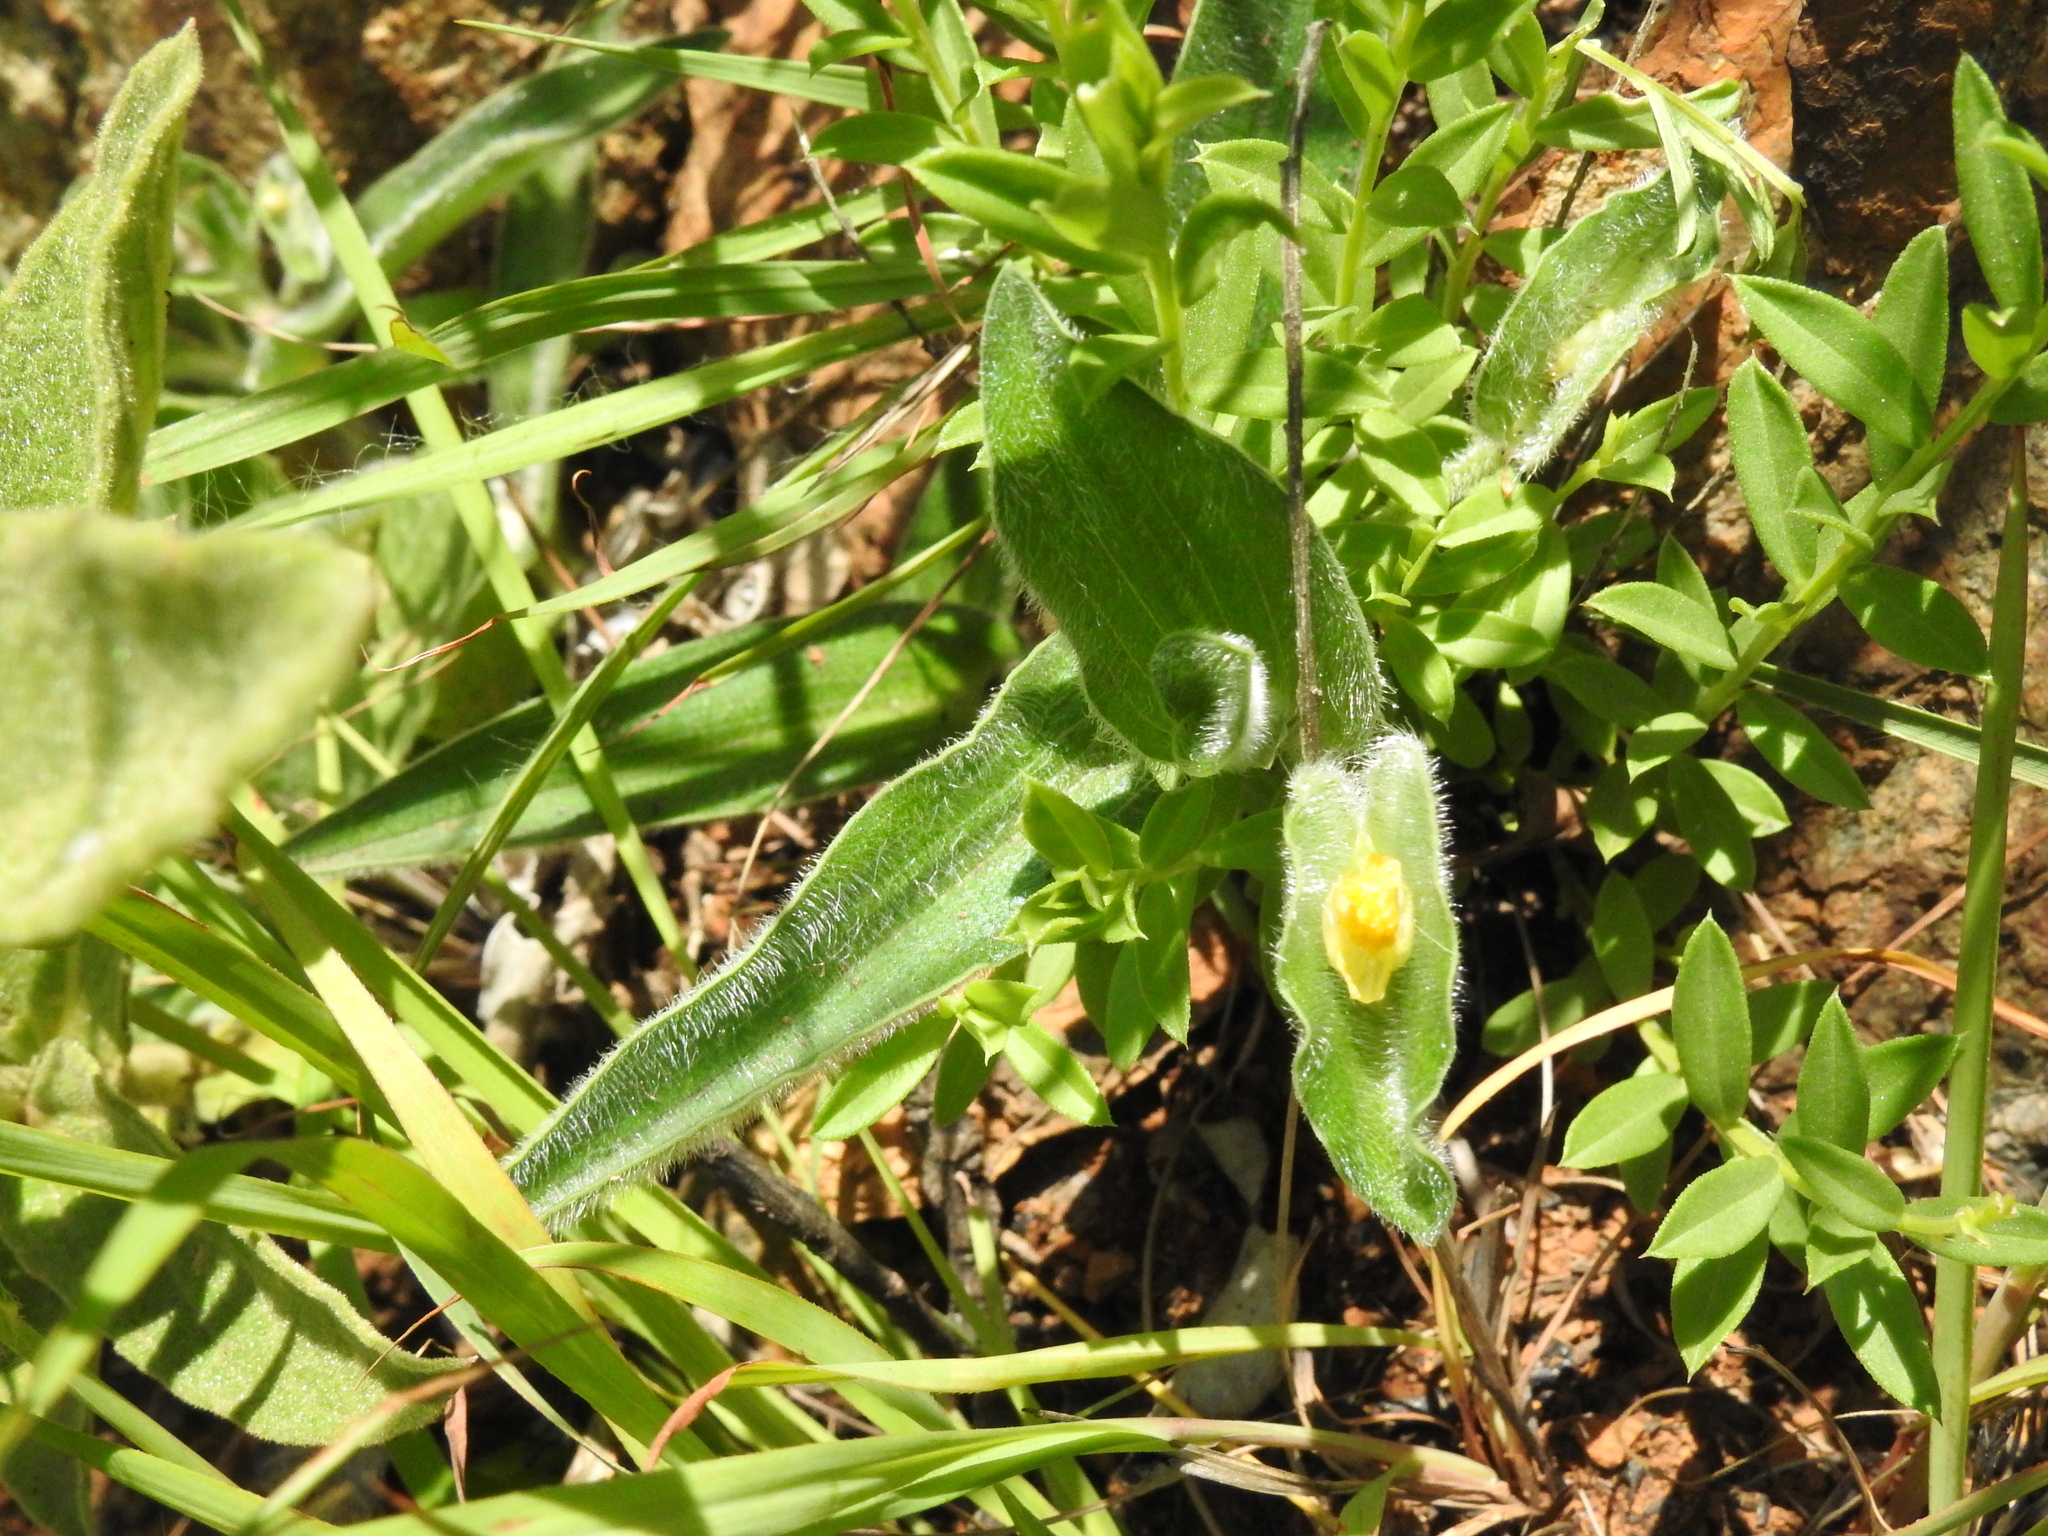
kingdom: Plantae
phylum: Tracheophyta
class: Liliopsida
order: Commelinales
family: Commelinaceae
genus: Commelina
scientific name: Commelina africana
